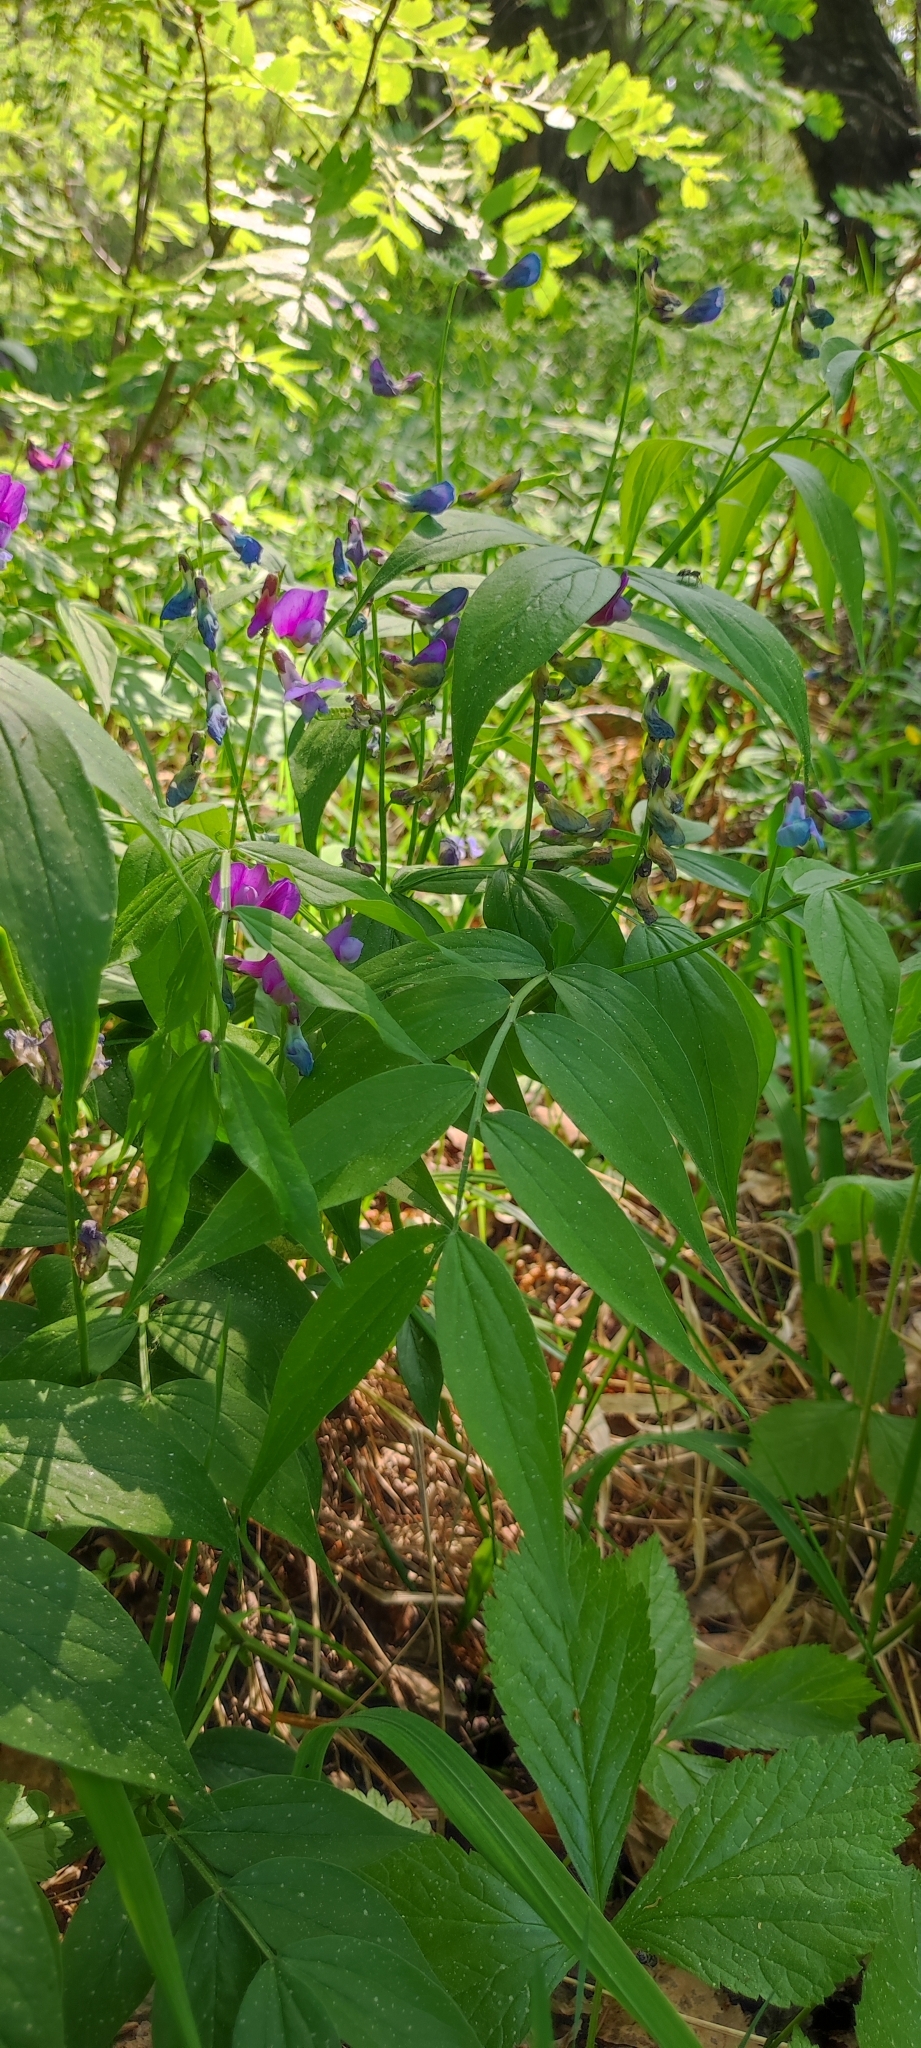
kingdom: Plantae
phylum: Tracheophyta
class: Magnoliopsida
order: Fabales
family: Fabaceae
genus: Lathyrus
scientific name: Lathyrus vernus
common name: Spring pea
